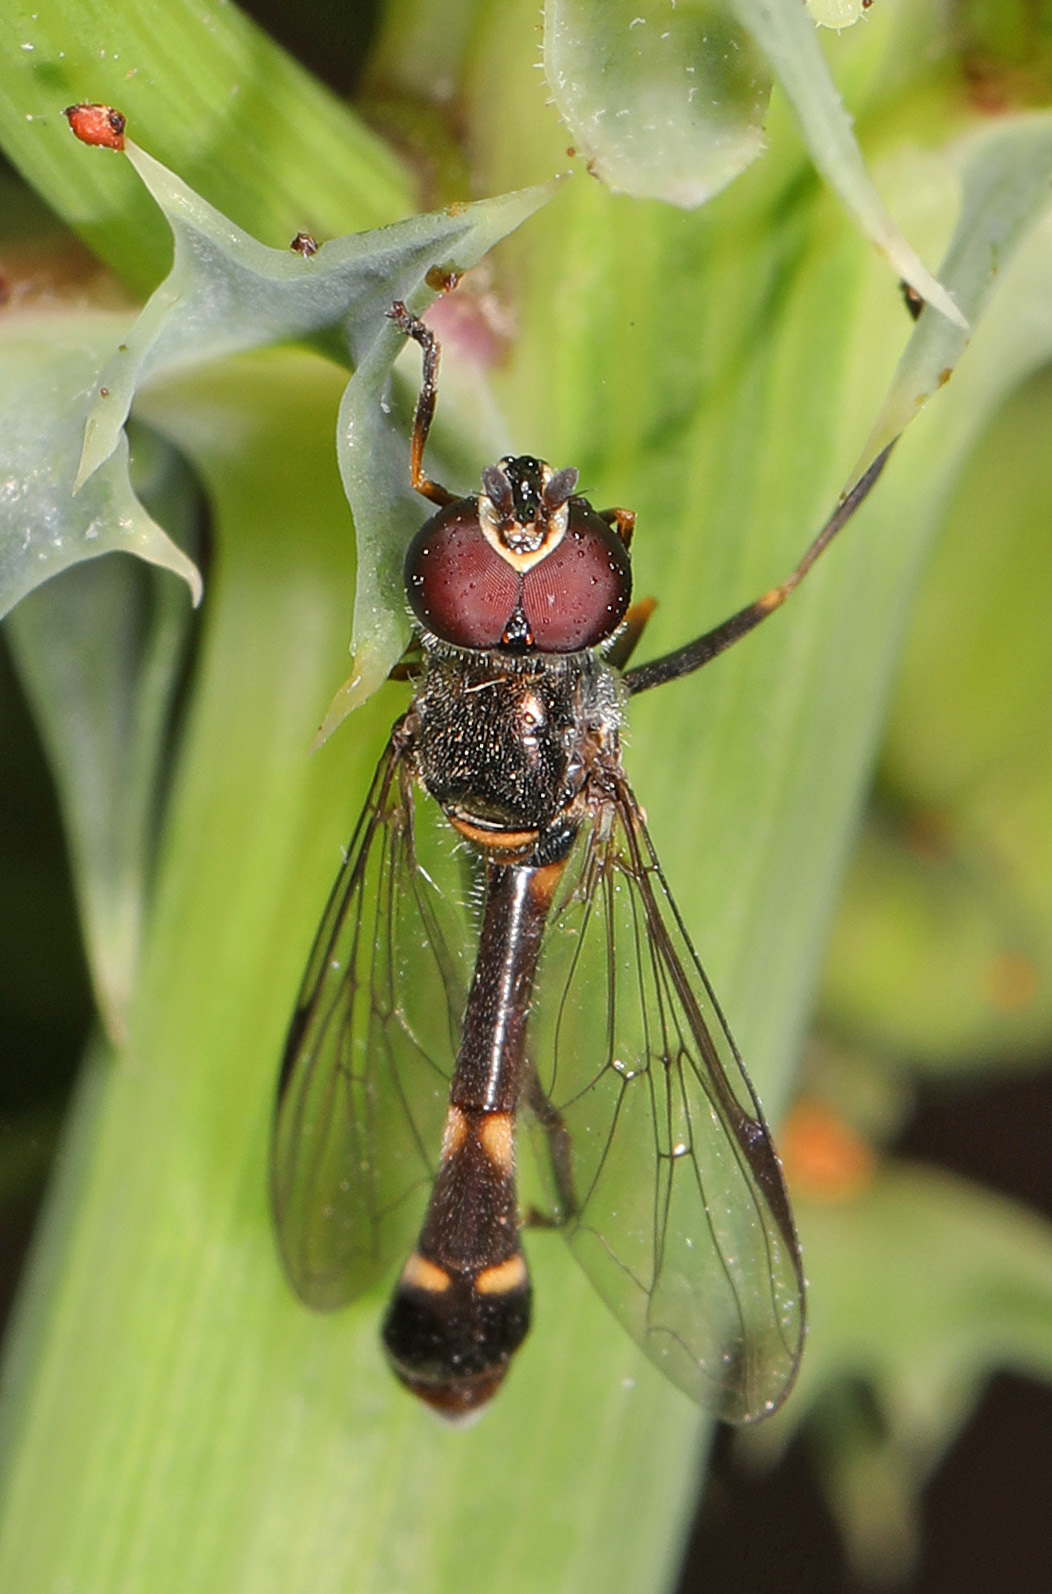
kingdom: Animalia
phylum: Arthropoda
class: Insecta
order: Diptera
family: Syrphidae
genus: Dioprosopa
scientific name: Dioprosopa clavatus
